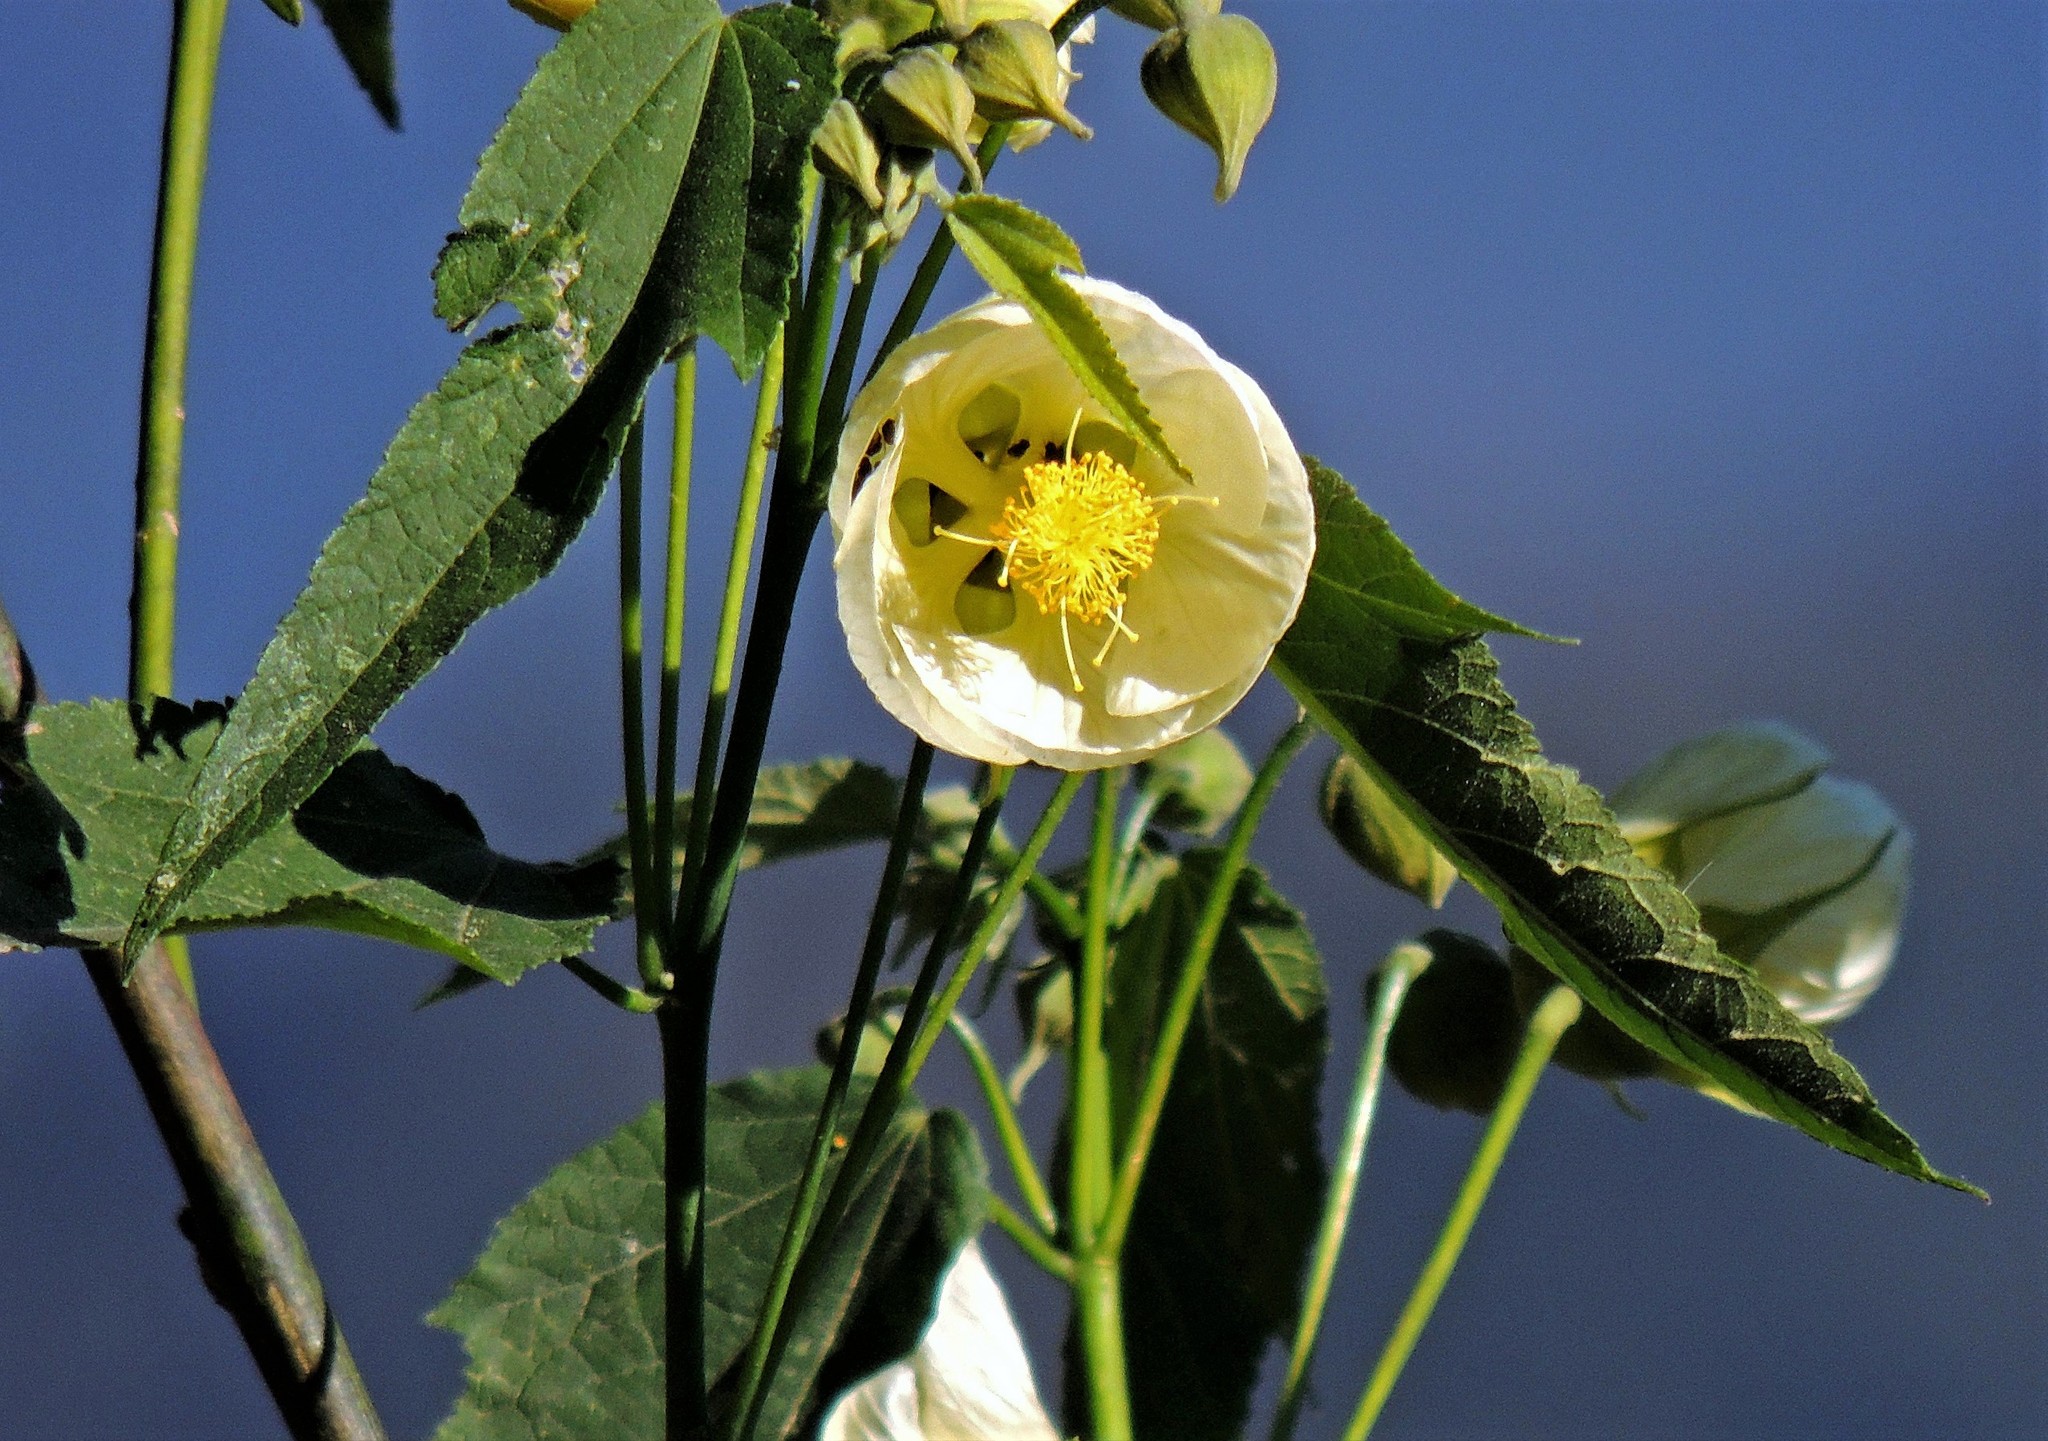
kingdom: Plantae
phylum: Tracheophyta
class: Magnoliopsida
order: Malvales
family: Malvaceae
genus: Callianthe
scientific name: Callianthe nivea
